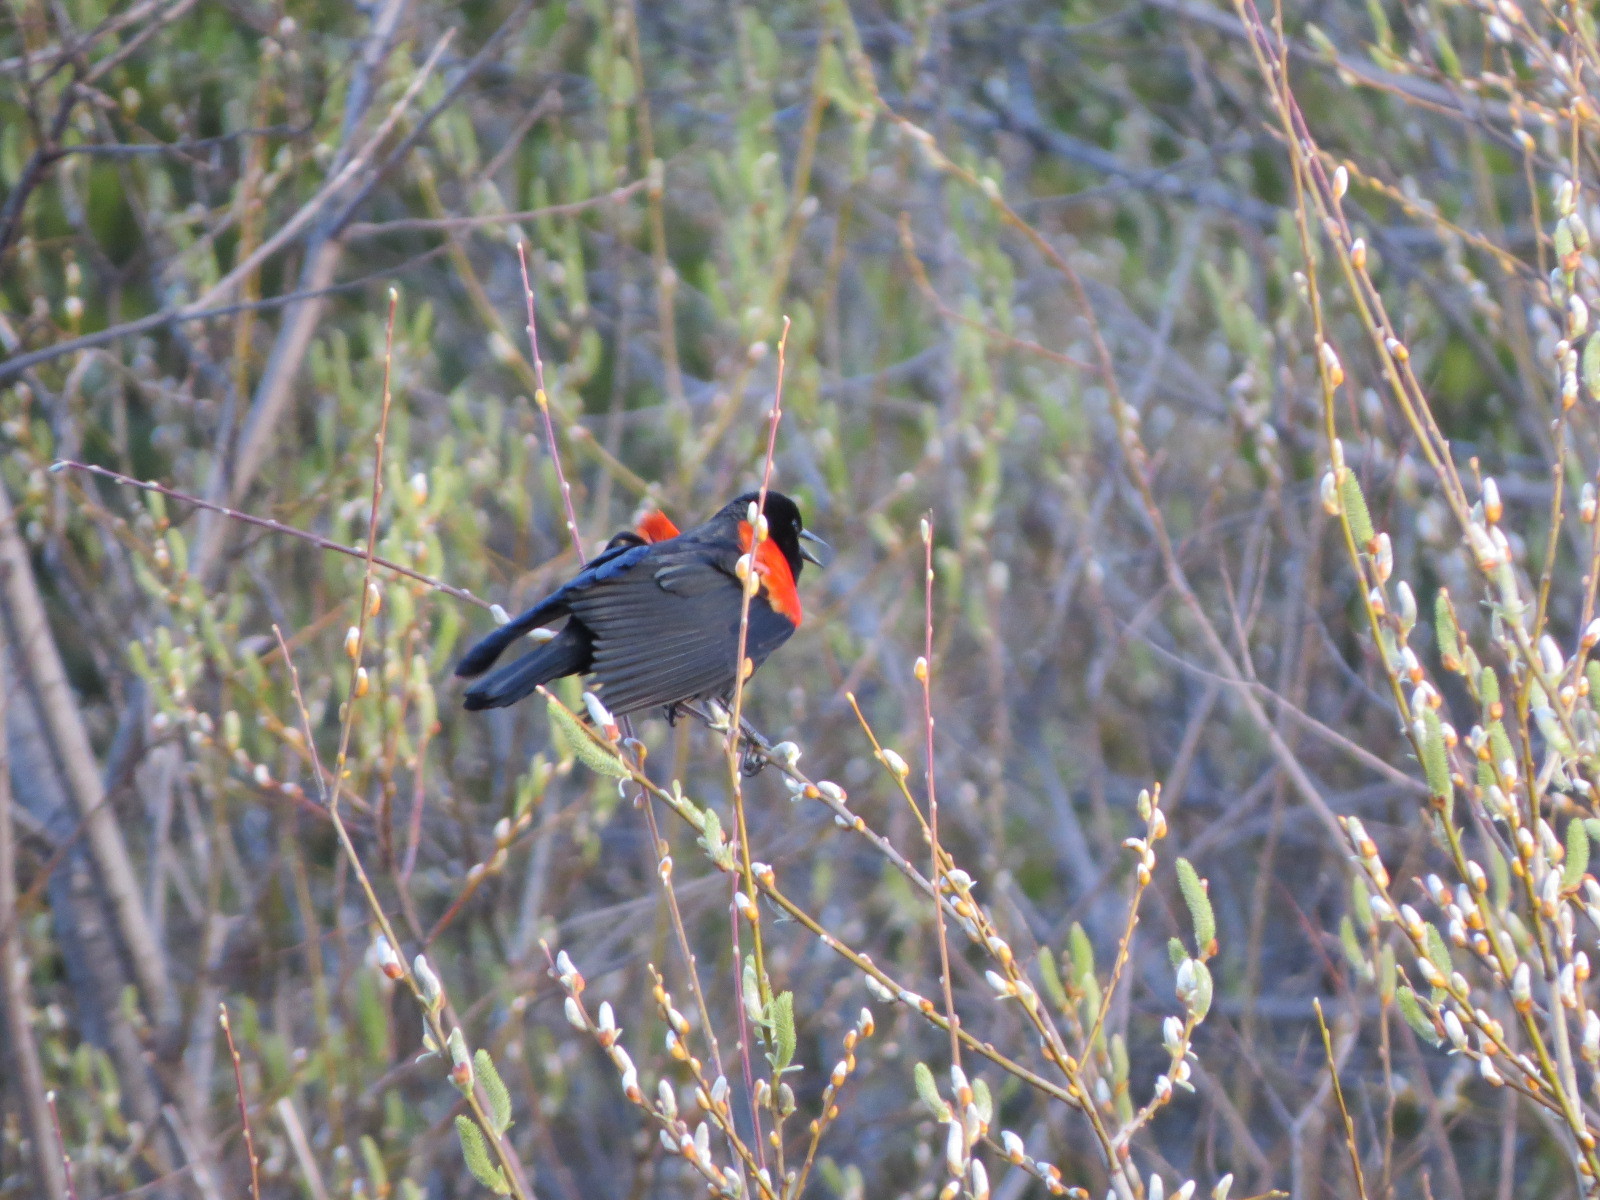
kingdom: Animalia
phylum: Chordata
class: Aves
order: Passeriformes
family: Icteridae
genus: Agelaius
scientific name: Agelaius phoeniceus
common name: Red-winged blackbird
